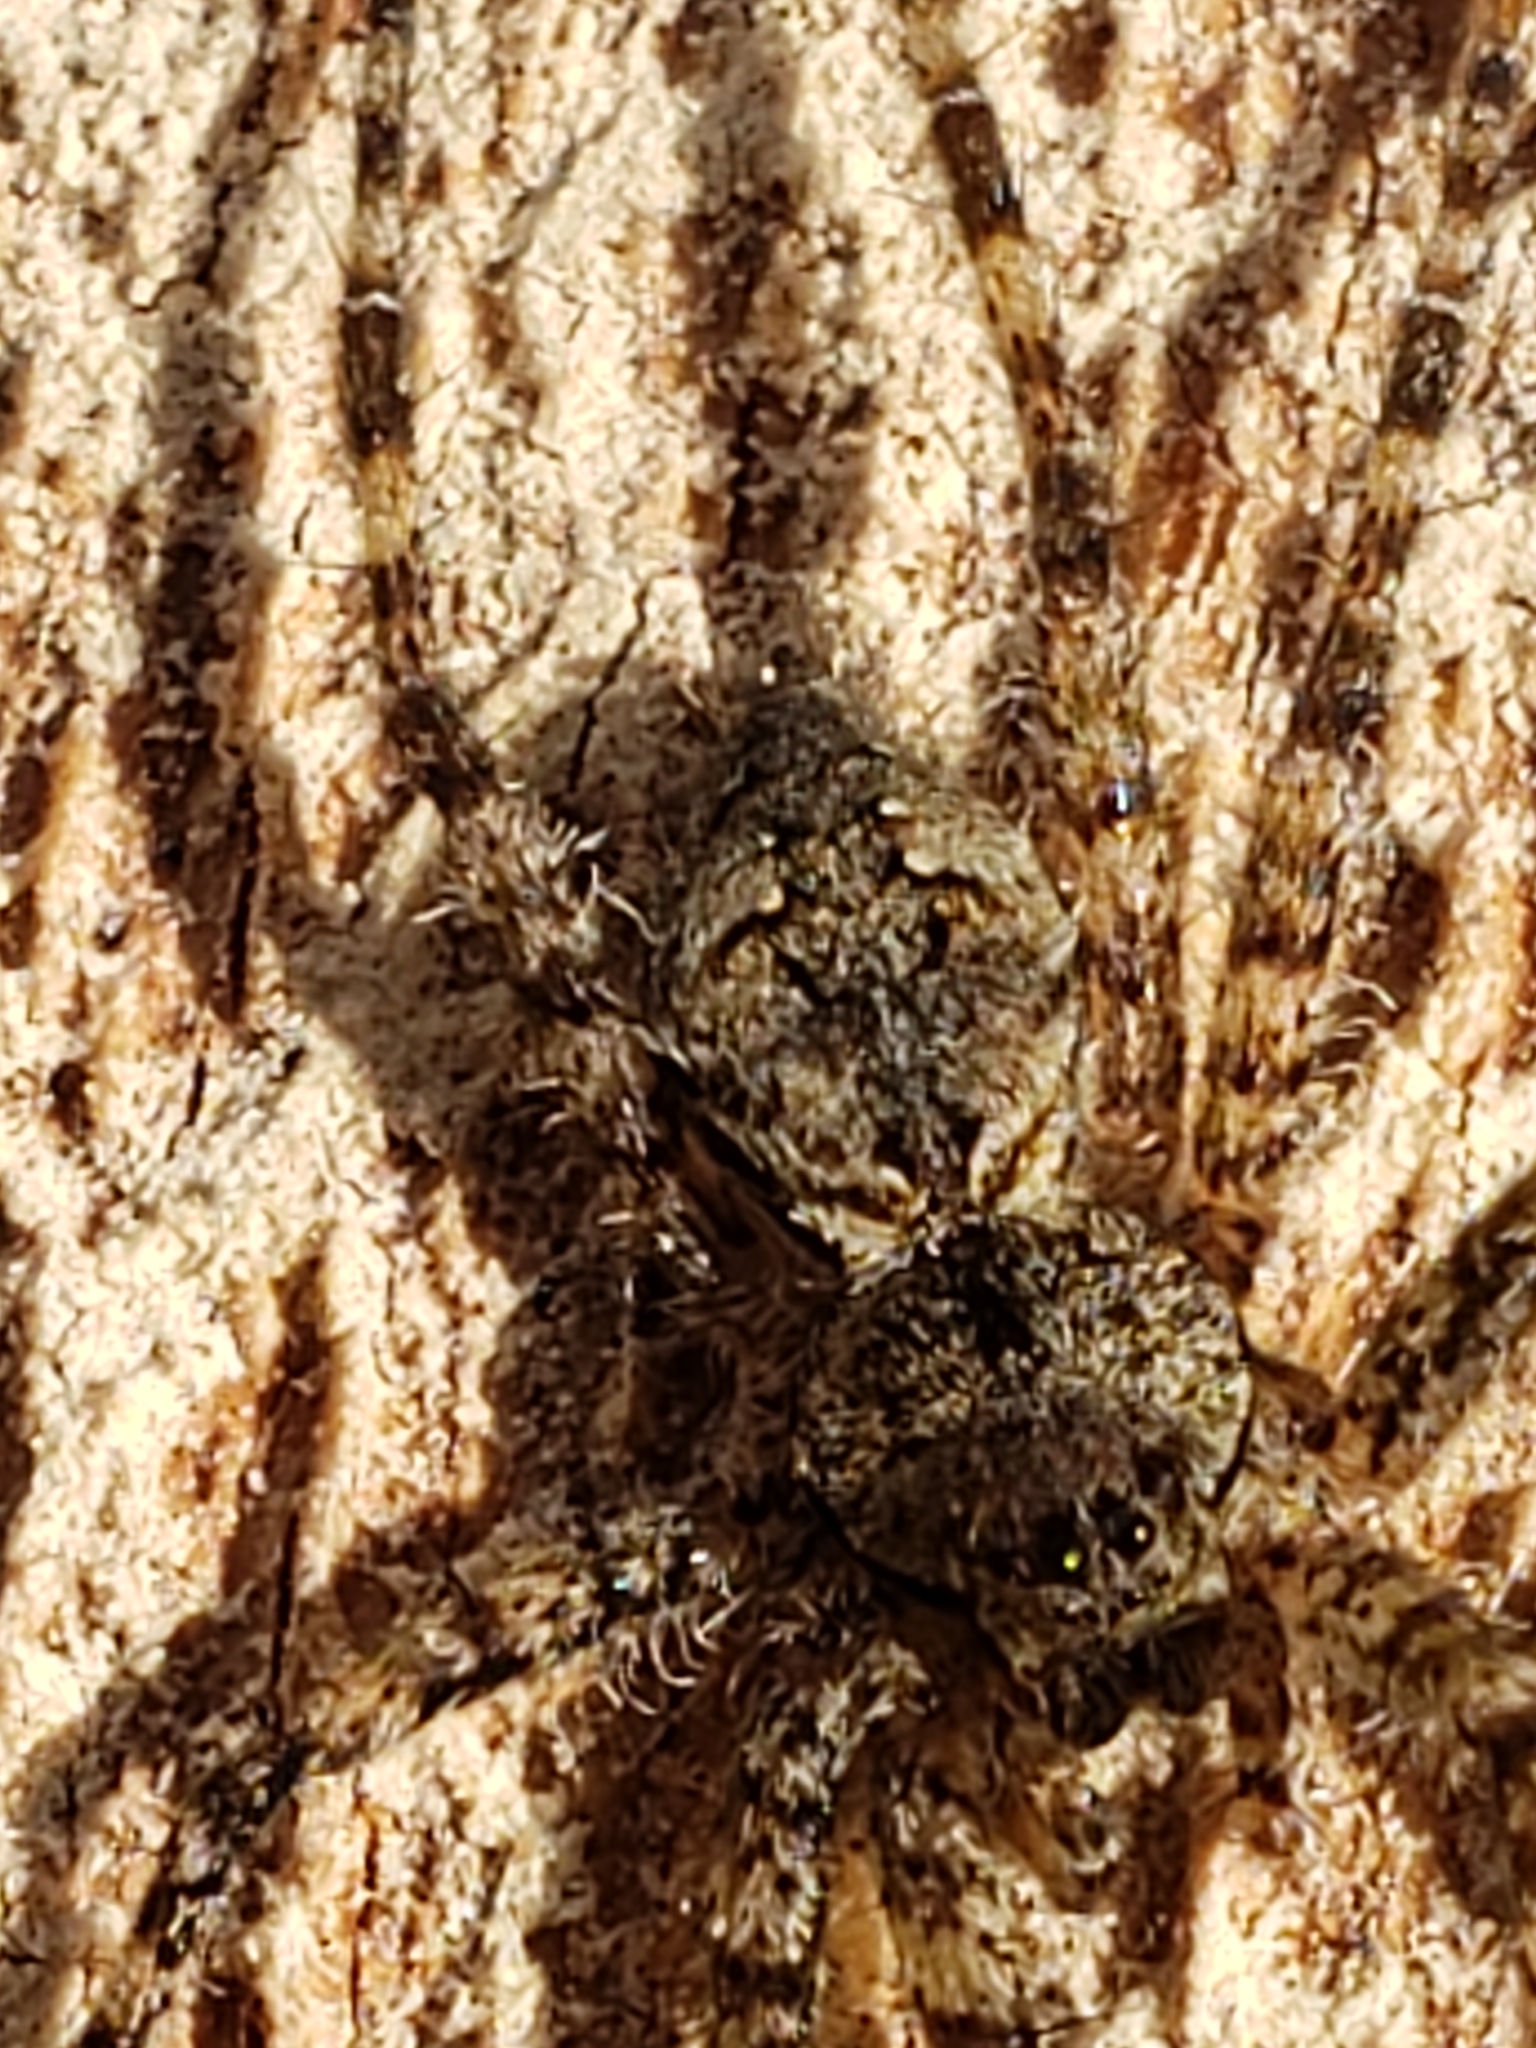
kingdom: Animalia
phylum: Arthropoda
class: Arachnida
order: Araneae
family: Pisauridae
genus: Dolomedes
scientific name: Dolomedes albineus
